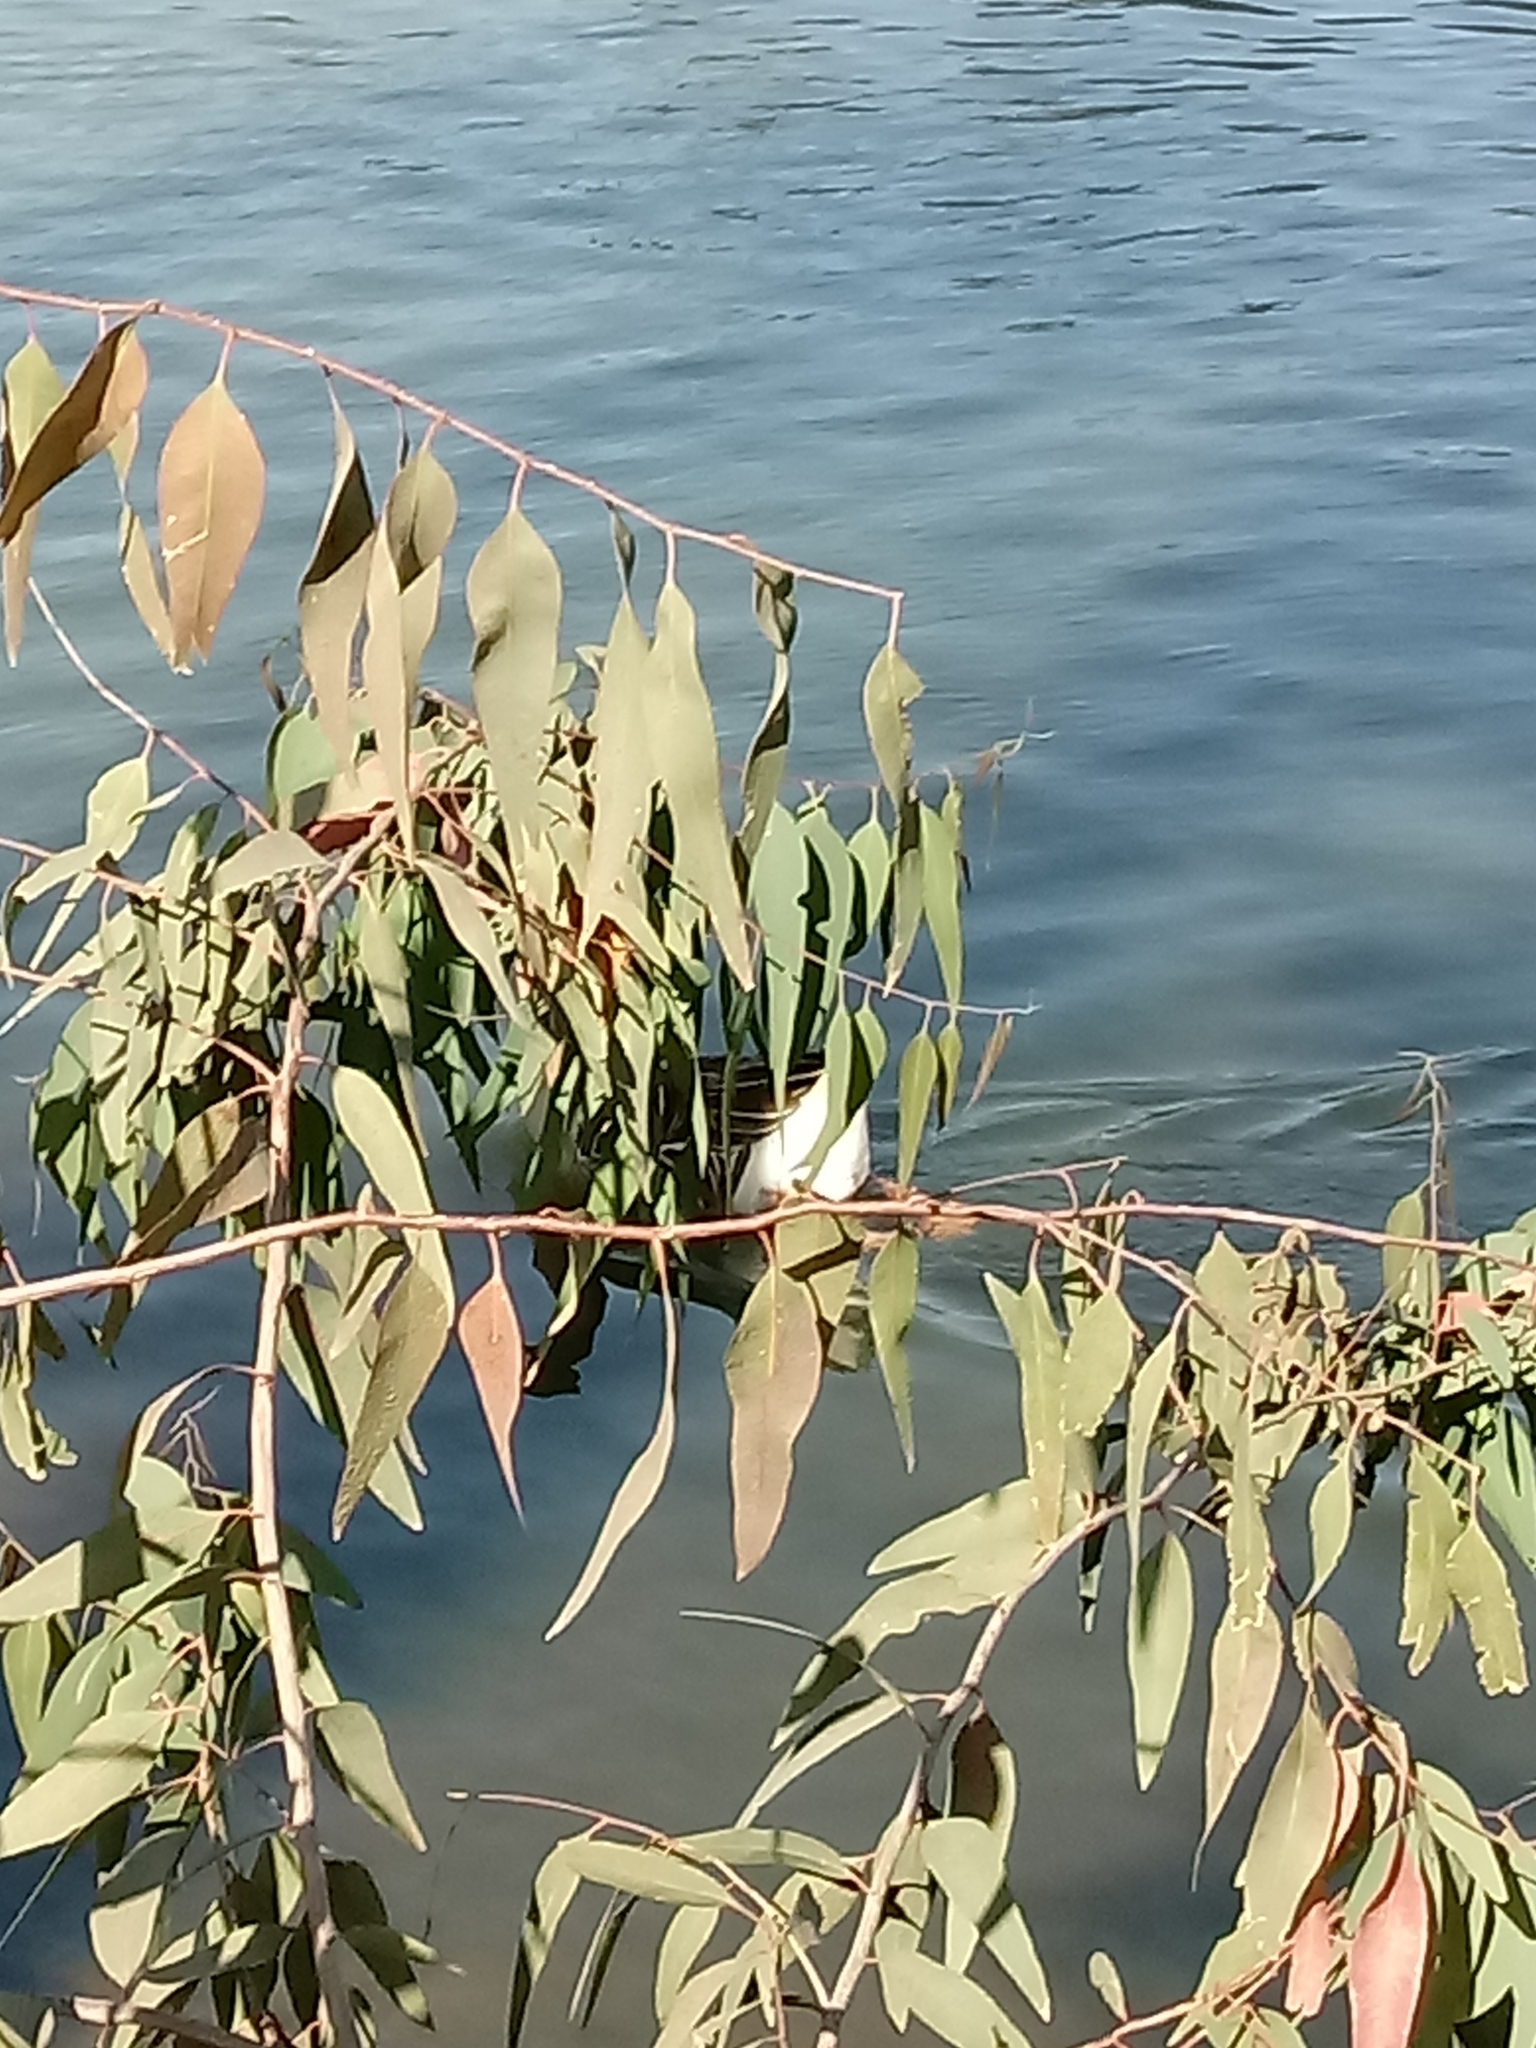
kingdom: Animalia
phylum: Chordata
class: Aves
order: Anseriformes
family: Anatidae
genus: Anser
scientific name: Anser
